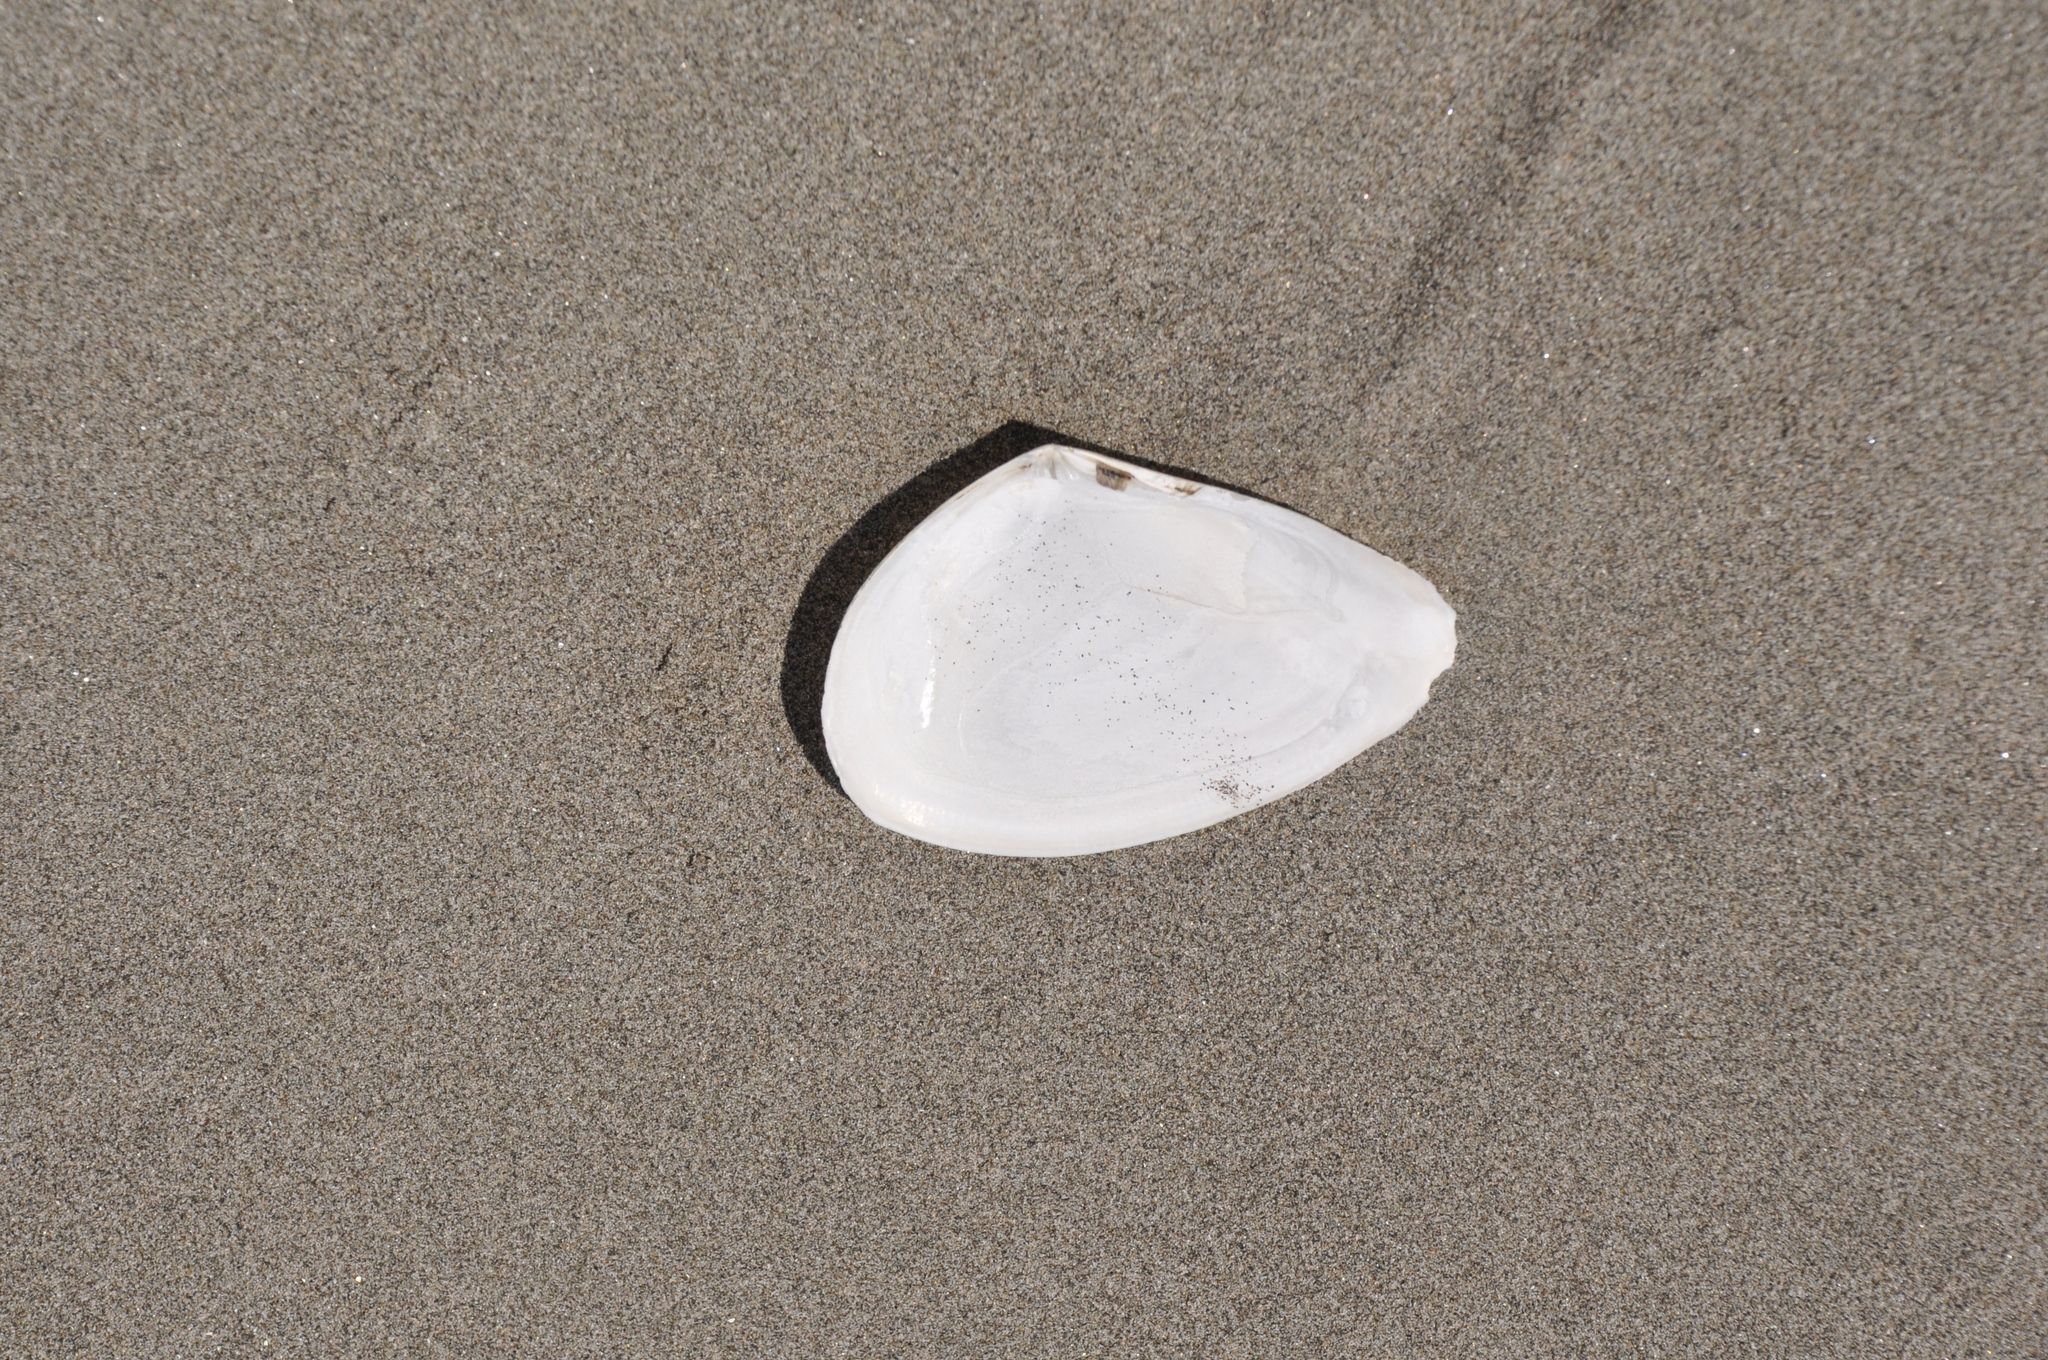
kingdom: Animalia
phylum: Mollusca
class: Bivalvia
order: Cardiida
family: Tellinidae
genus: Bartschicoma
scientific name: Bartschicoma gaimardi
